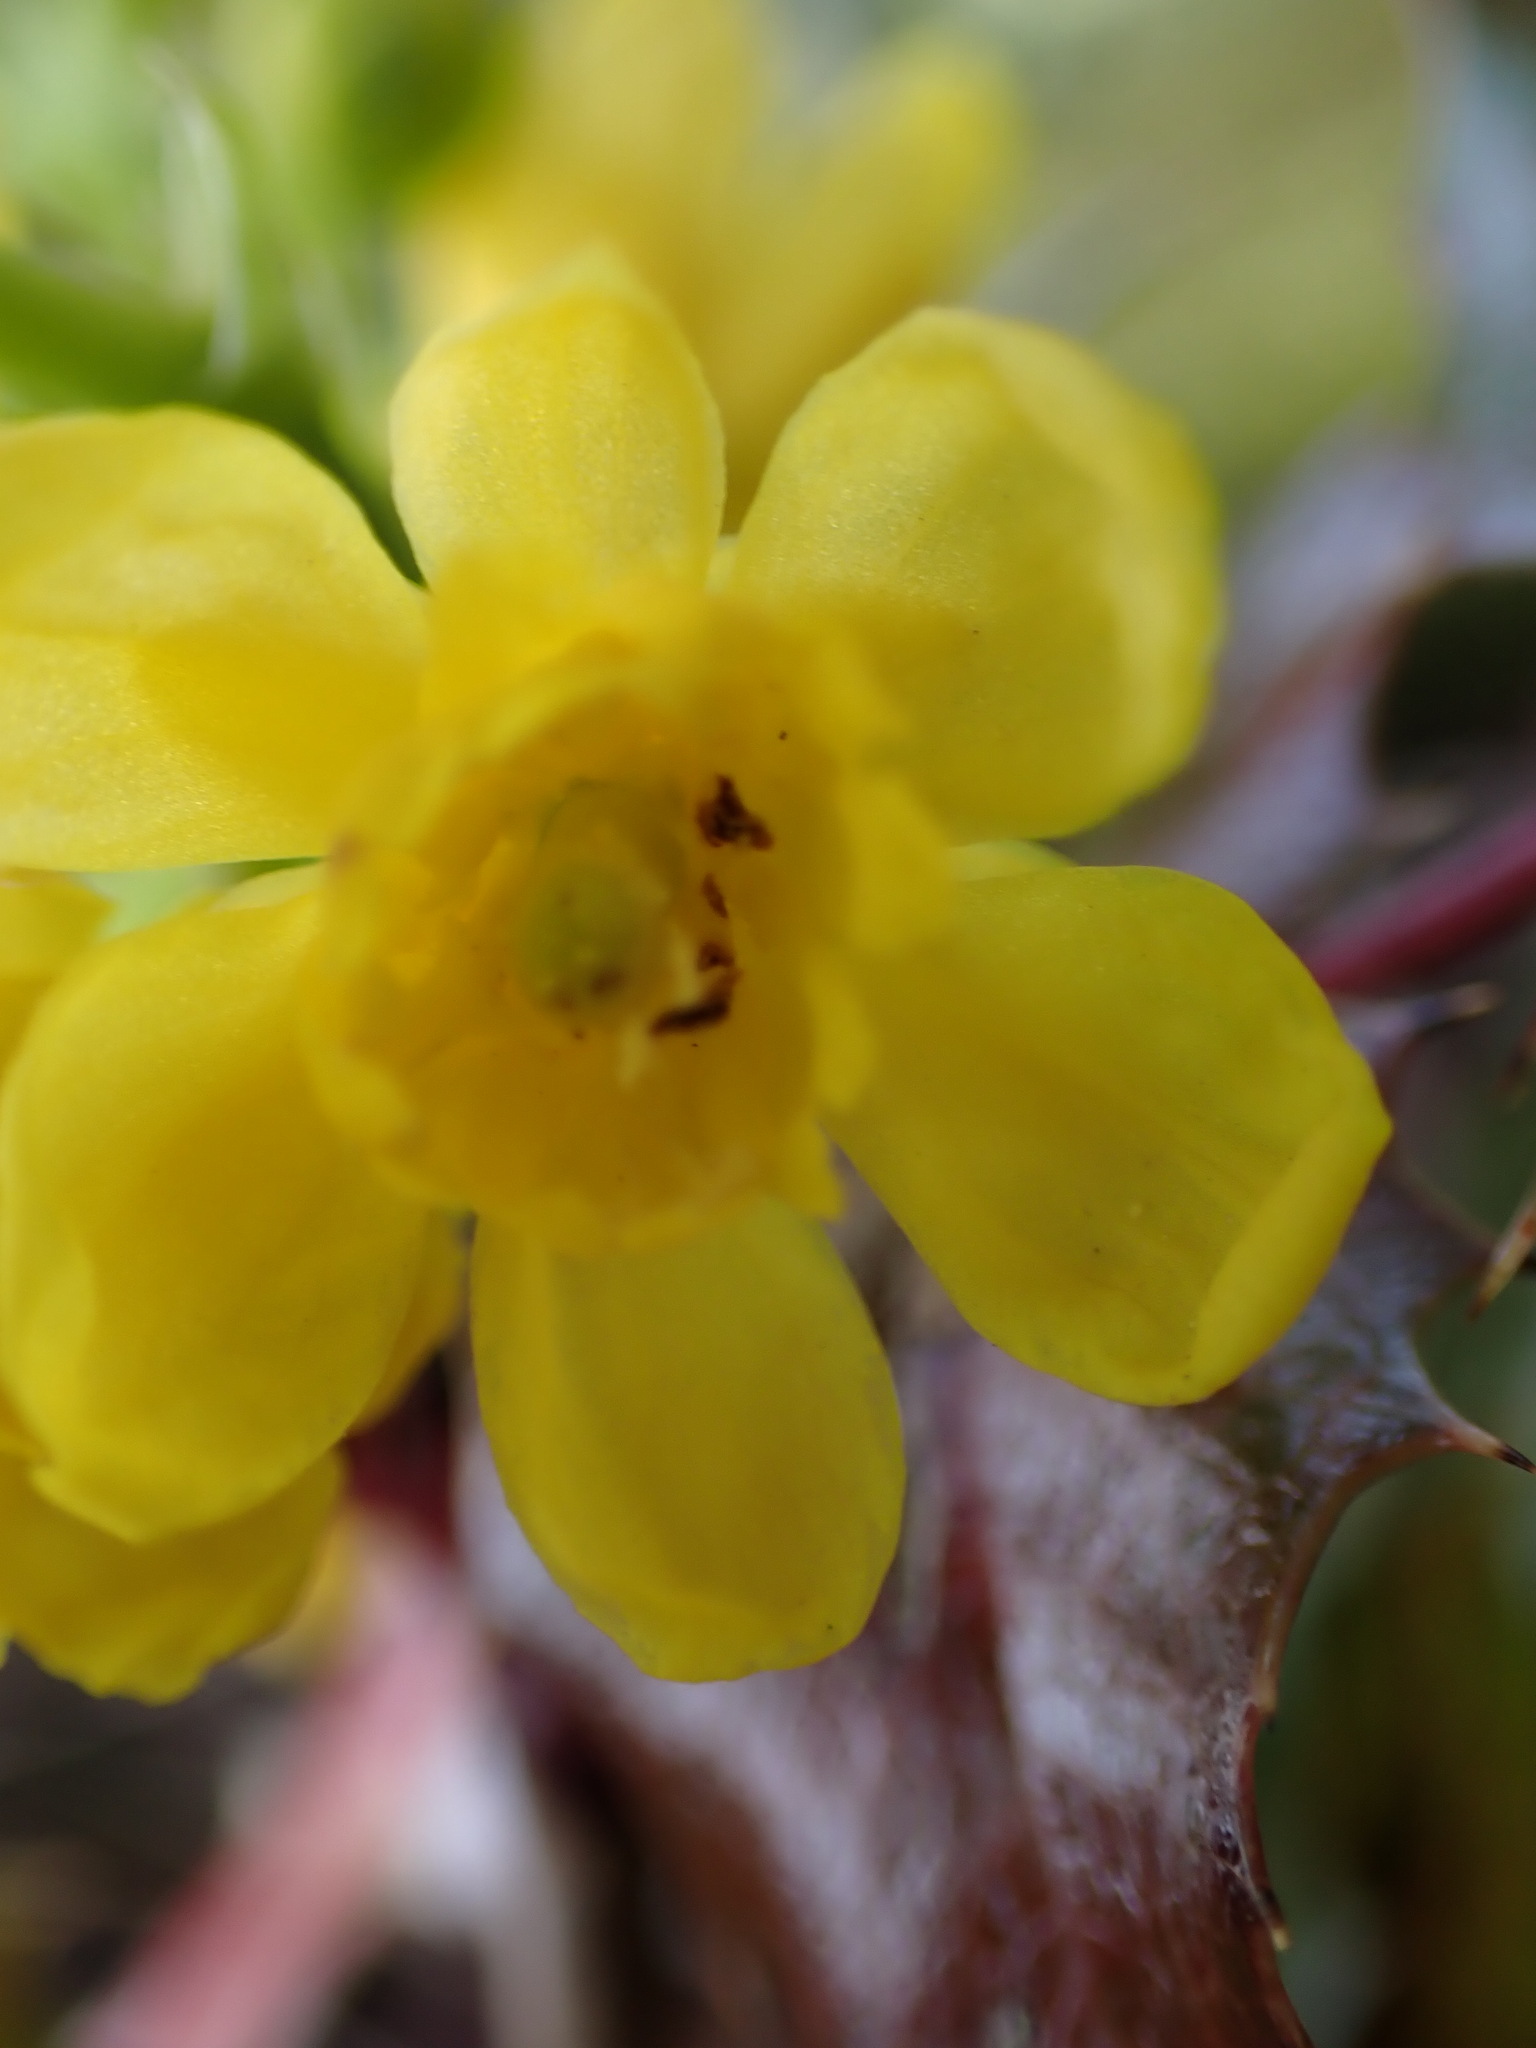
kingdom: Plantae
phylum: Tracheophyta
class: Magnoliopsida
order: Ranunculales
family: Berberidaceae
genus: Mahonia
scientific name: Mahonia aquifolium
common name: Oregon-grape
